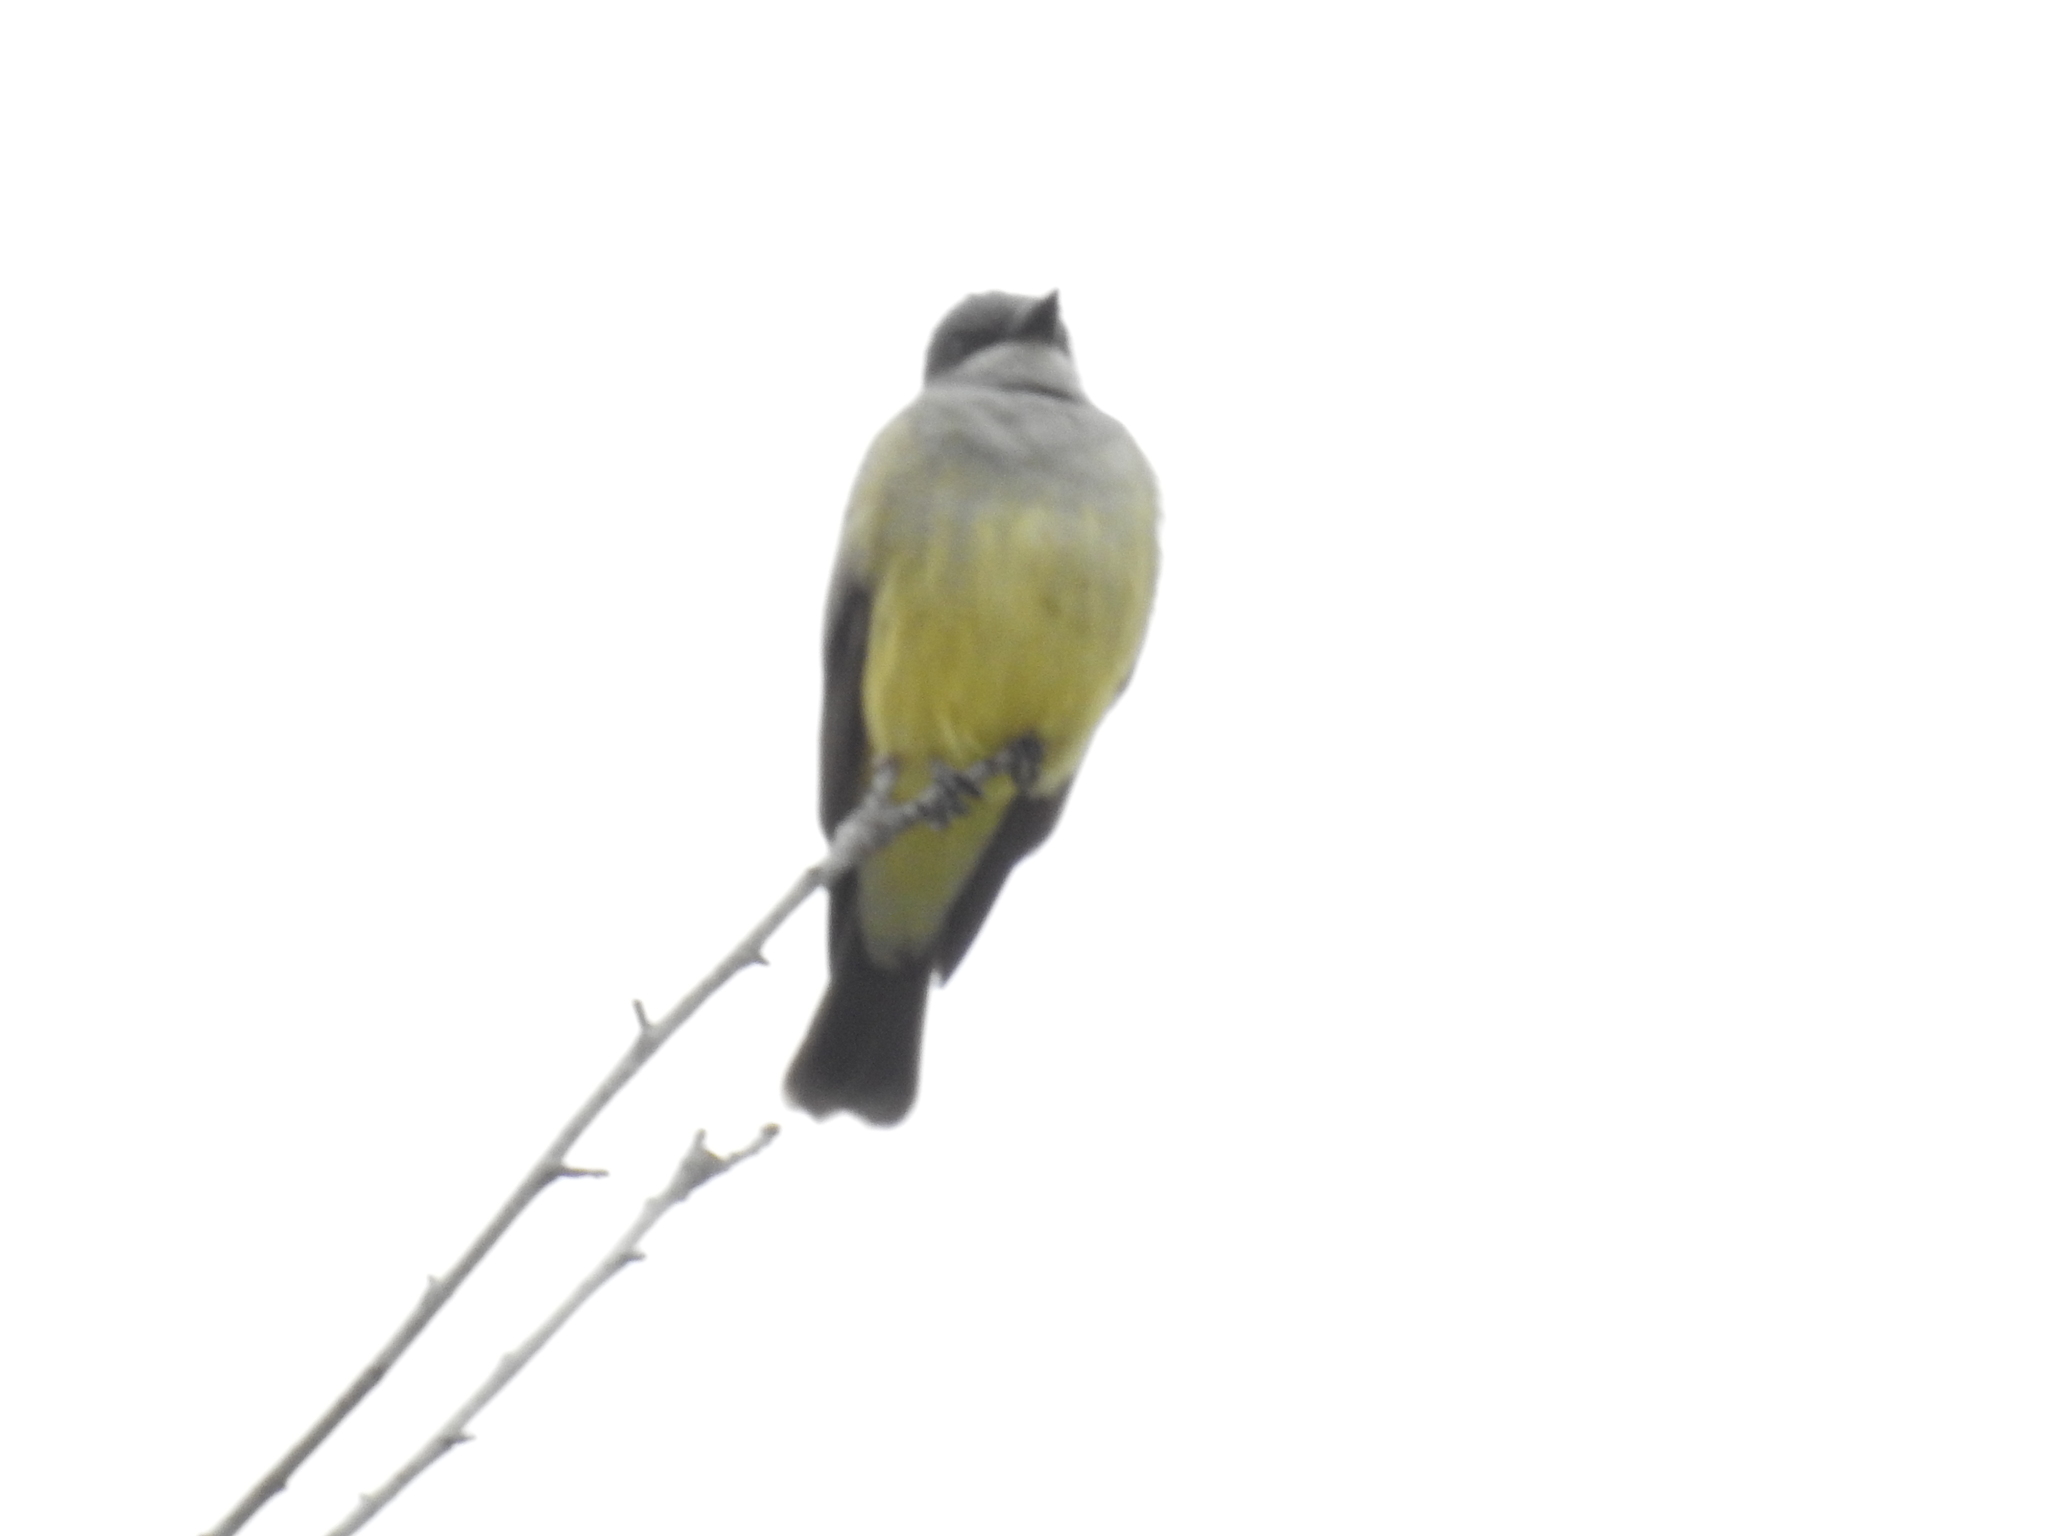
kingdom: Animalia
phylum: Chordata
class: Aves
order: Passeriformes
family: Tyrannidae
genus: Tyrannus
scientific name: Tyrannus vociferans
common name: Cassin's kingbird
